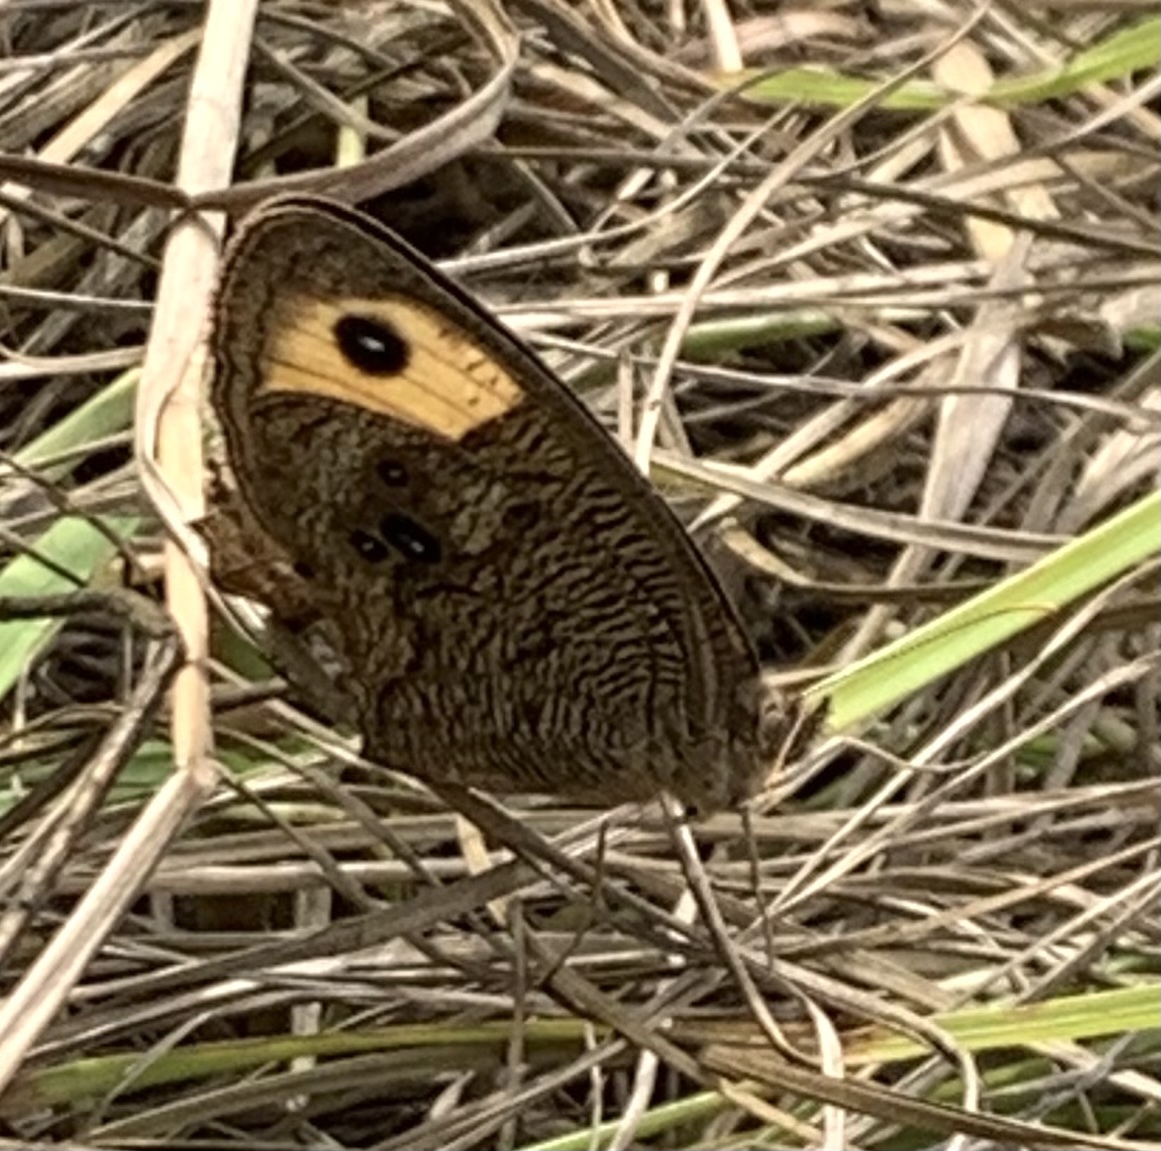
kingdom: Animalia
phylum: Arthropoda
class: Insecta
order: Lepidoptera
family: Nymphalidae
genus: Cercyonis
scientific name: Cercyonis pegala
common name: Common wood-nymph
